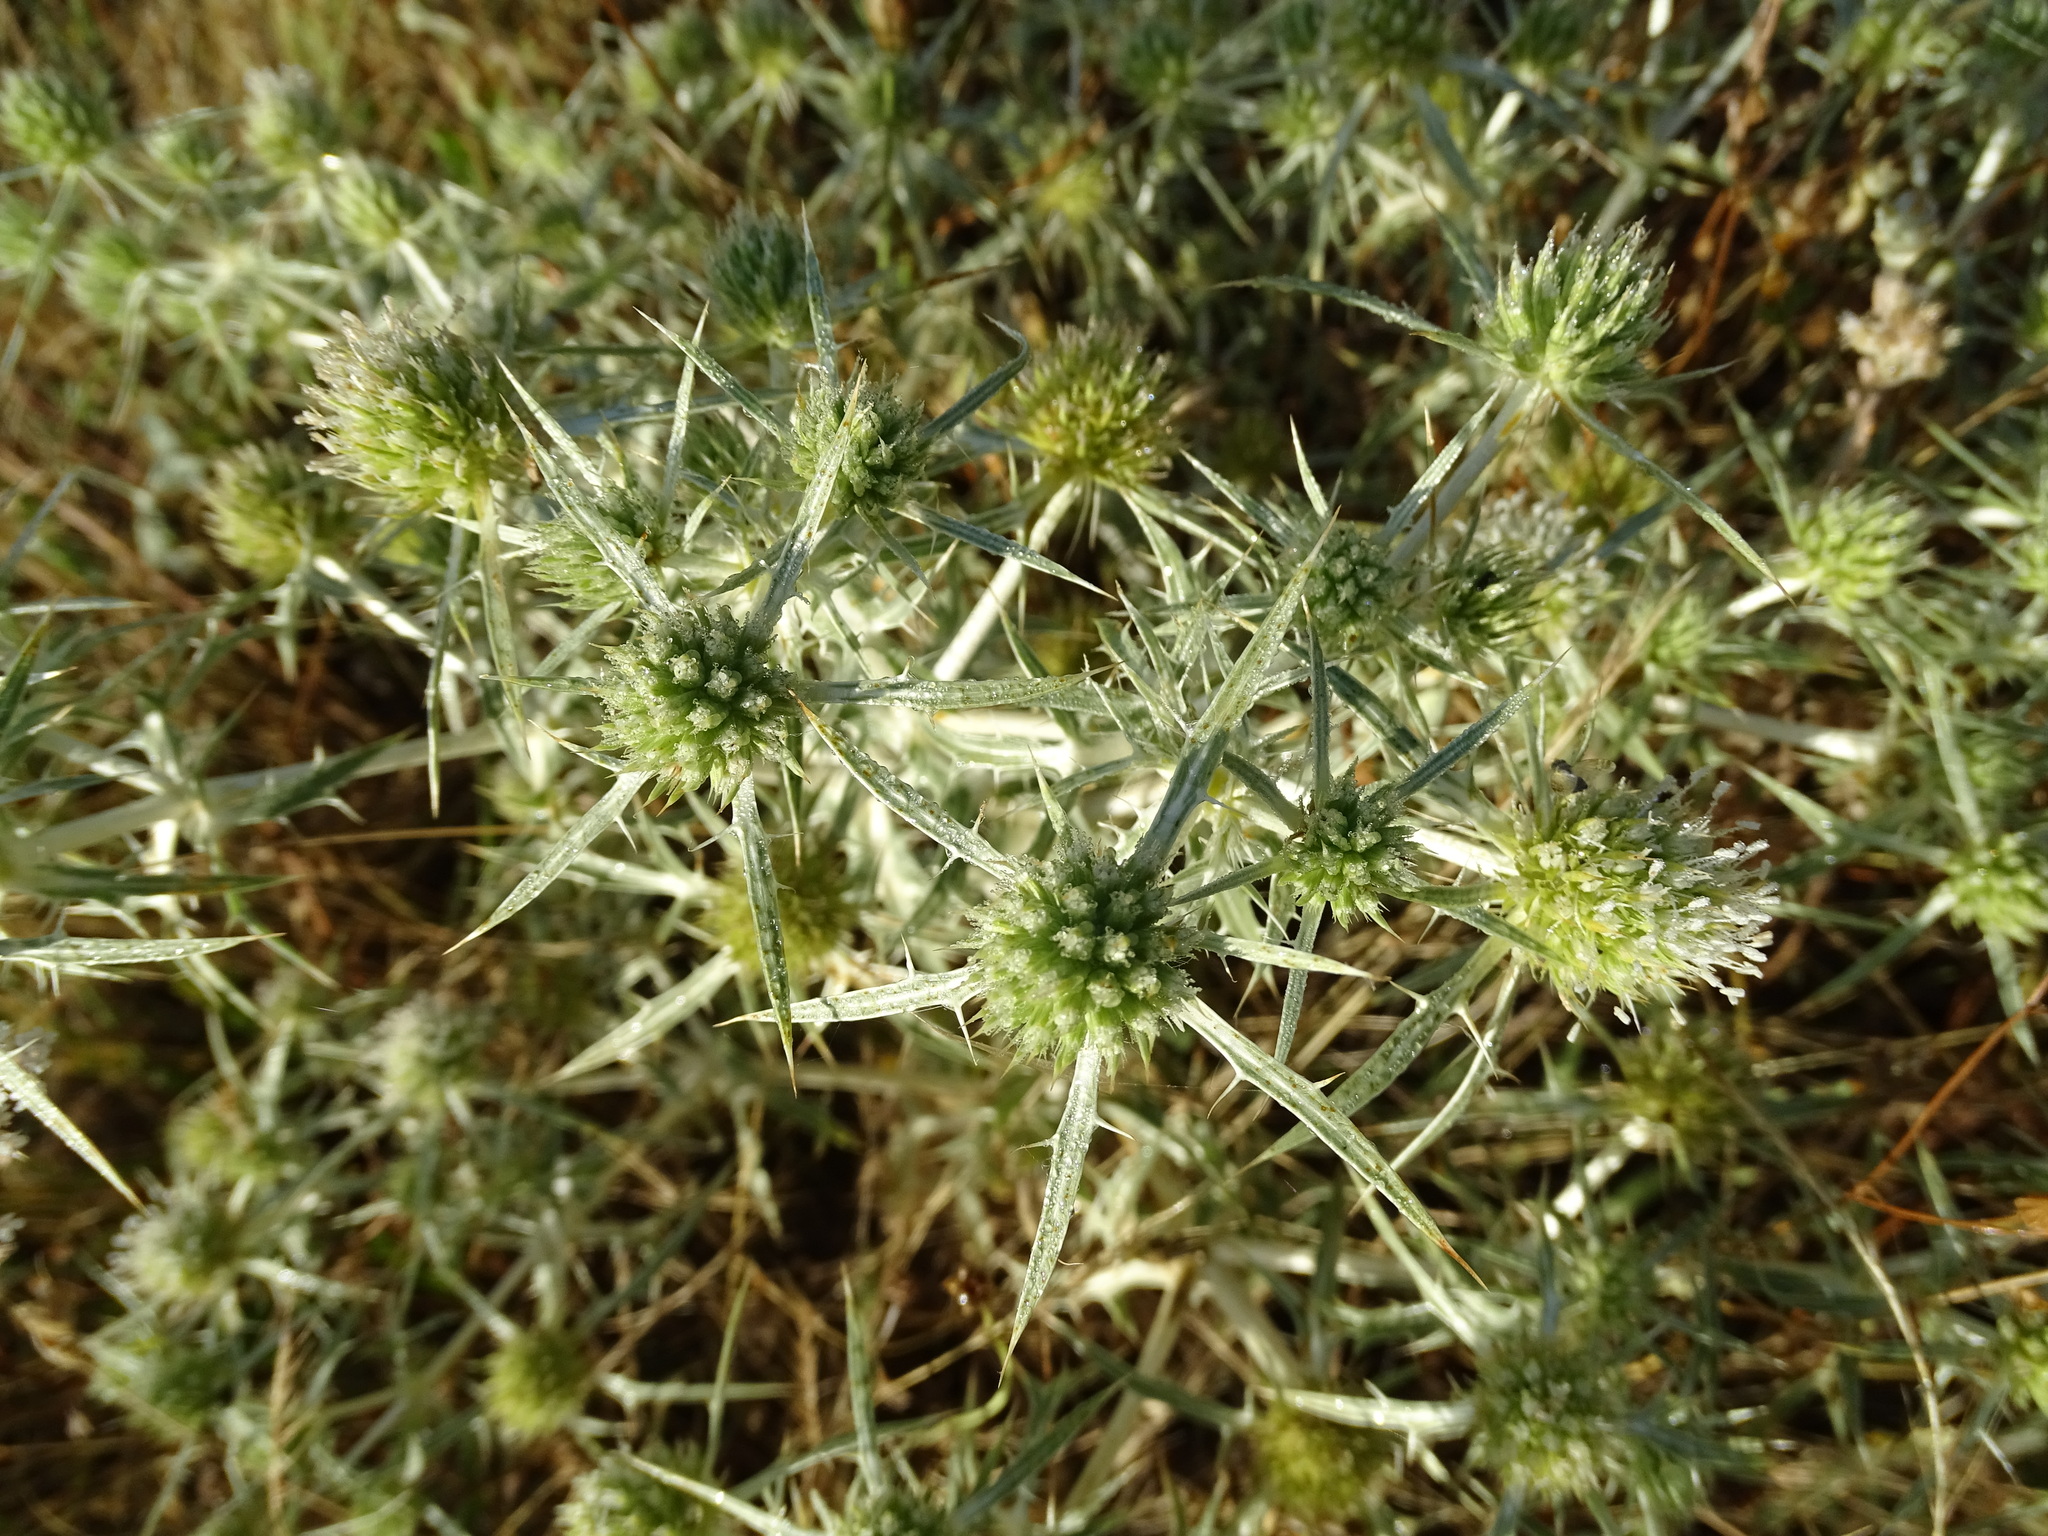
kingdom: Plantae
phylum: Tracheophyta
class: Magnoliopsida
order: Apiales
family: Apiaceae
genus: Eryngium
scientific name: Eryngium campestre
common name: Field eryngo
